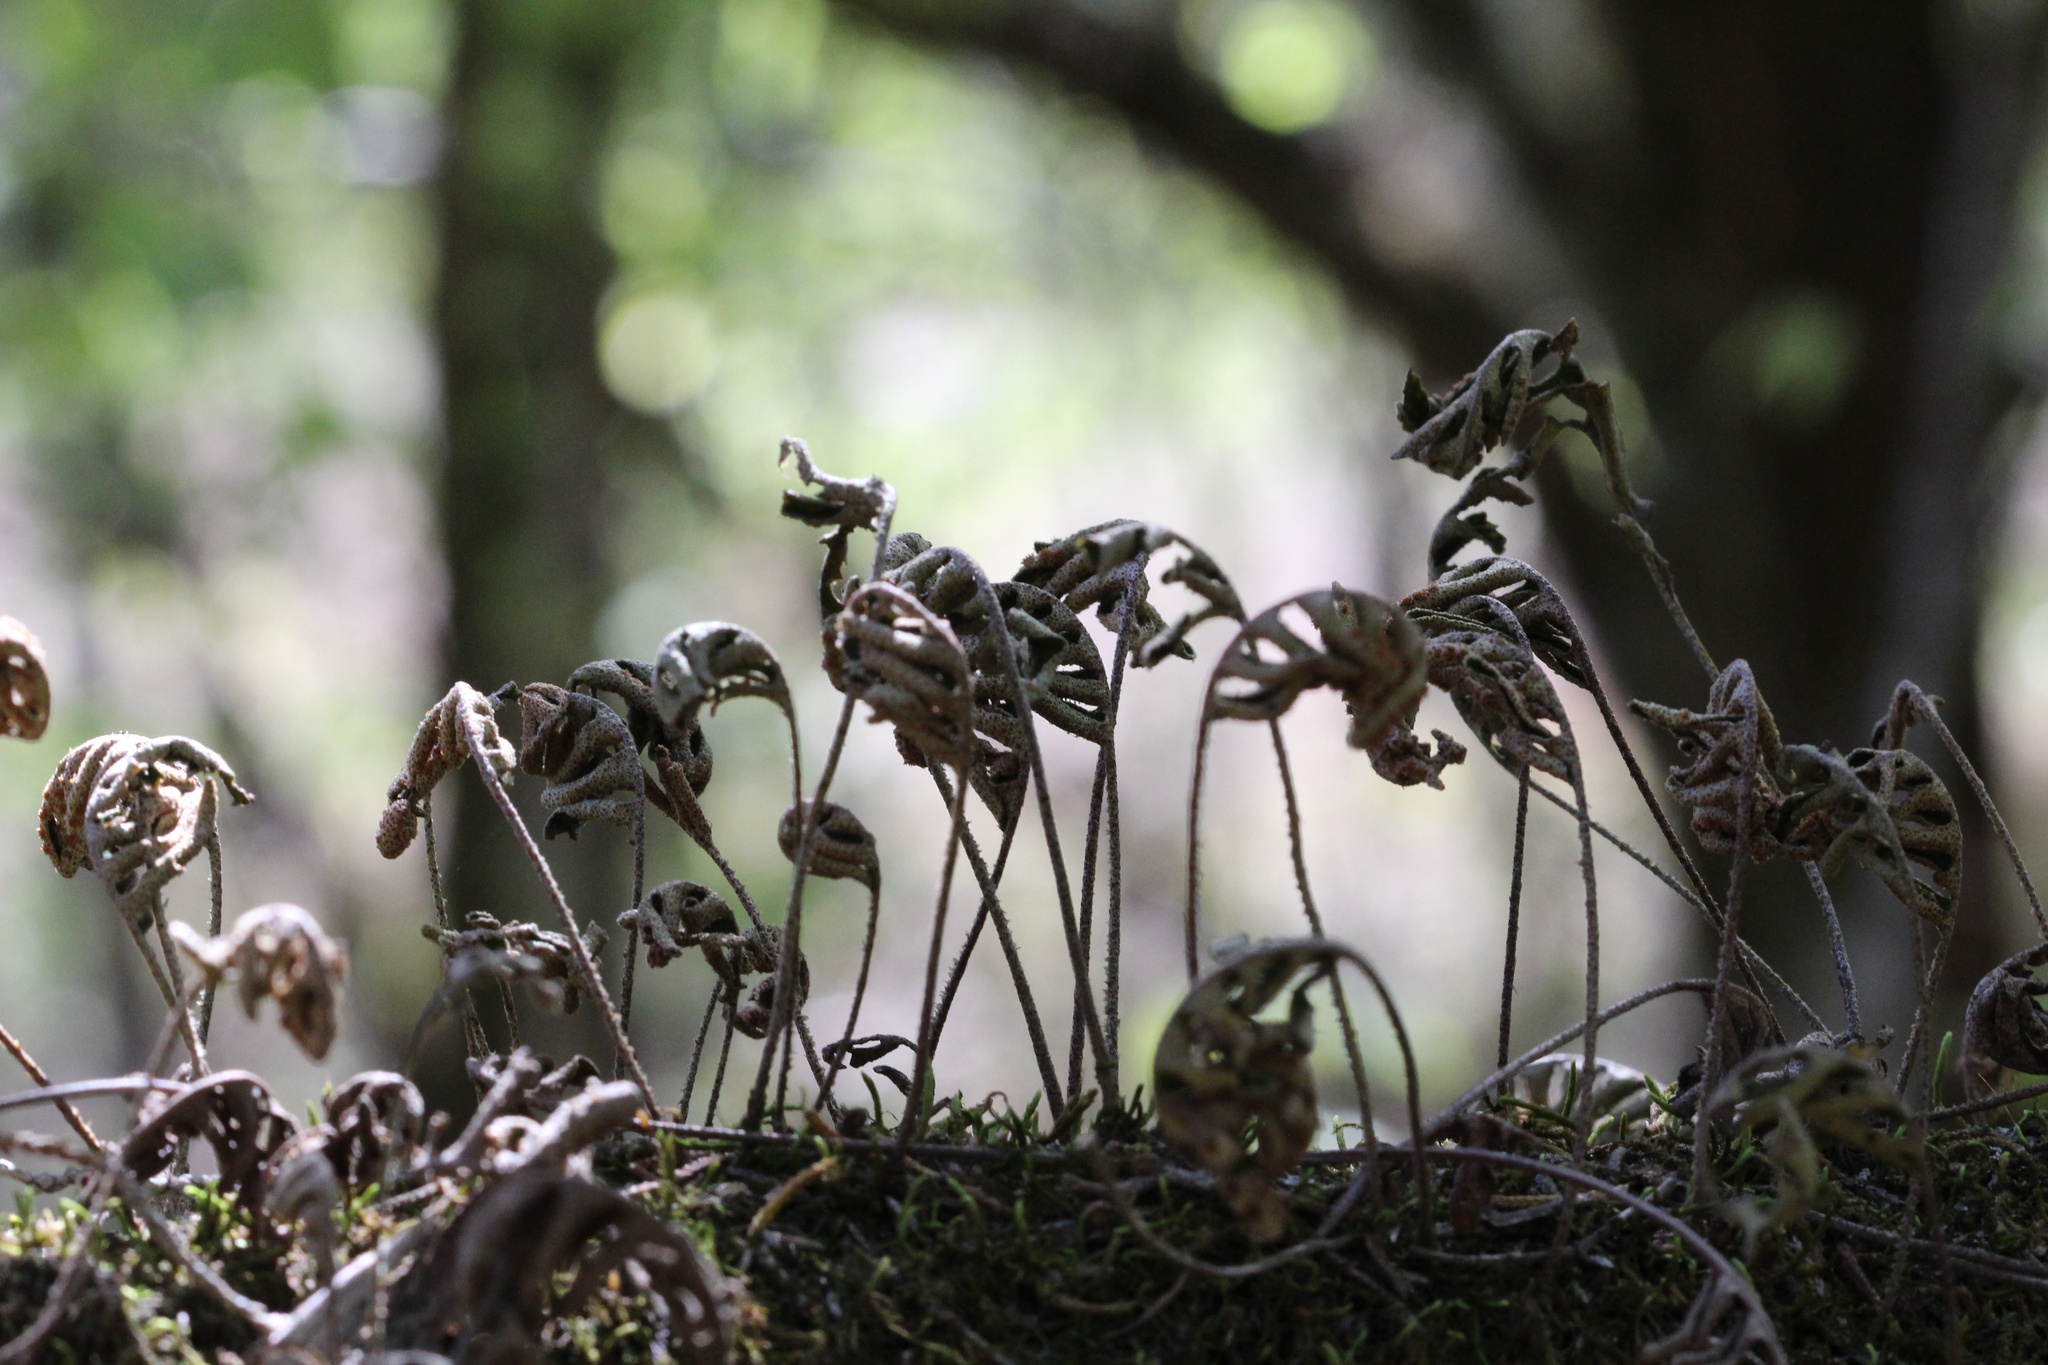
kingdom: Plantae
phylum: Tracheophyta
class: Polypodiopsida
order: Polypodiales
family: Polypodiaceae
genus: Pleopeltis
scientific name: Pleopeltis michauxiana
